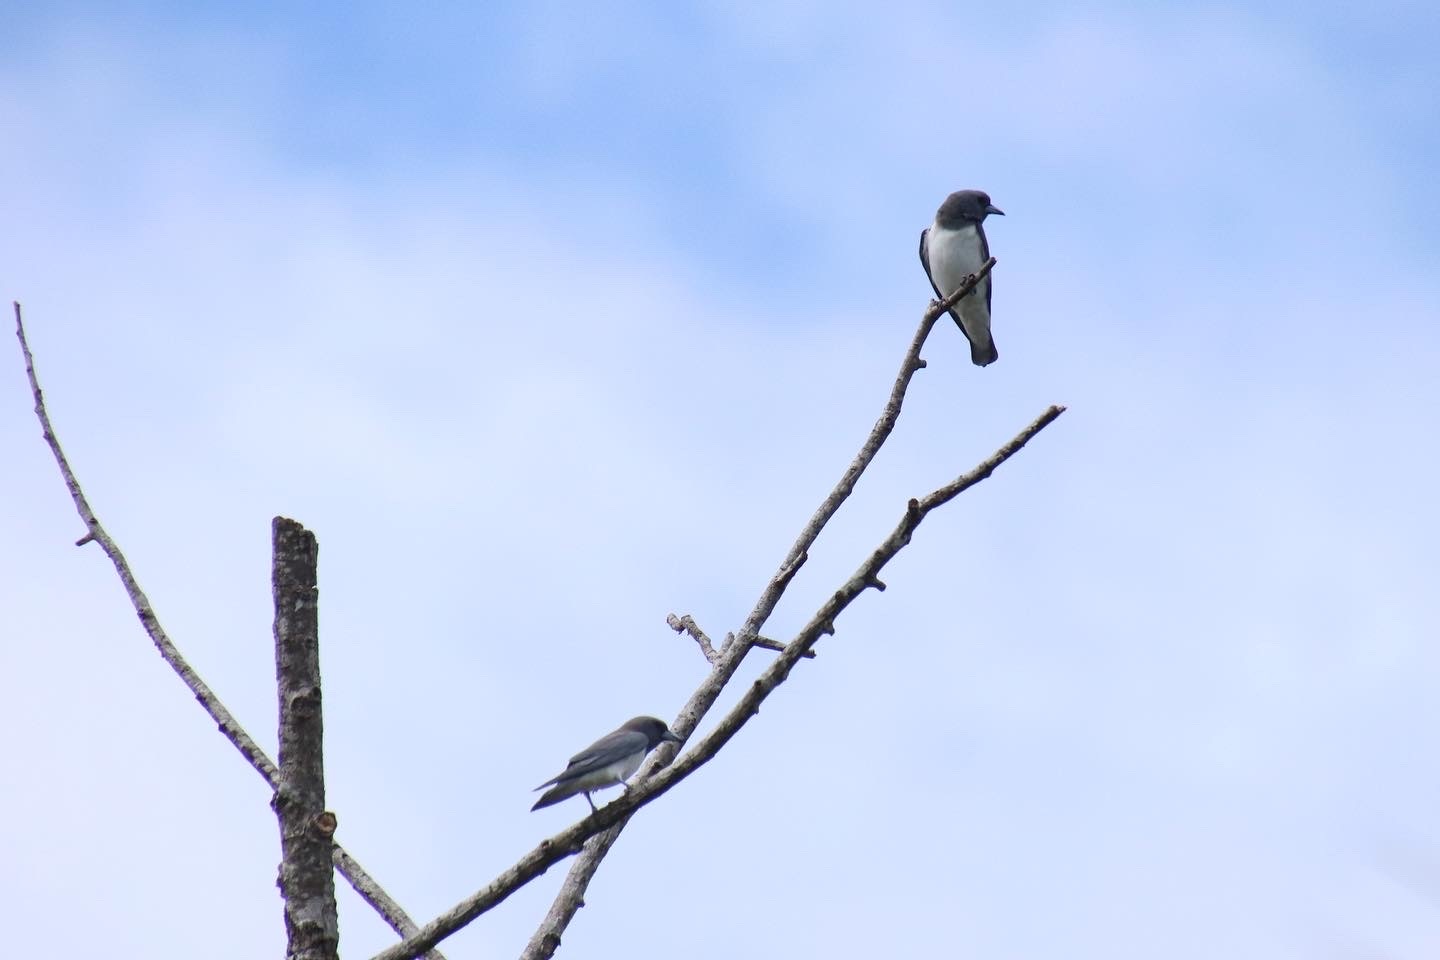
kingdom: Animalia
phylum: Chordata
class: Aves
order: Passeriformes
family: Artamidae
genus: Artamus
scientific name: Artamus leucoryn
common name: White-breasted woodswallow
